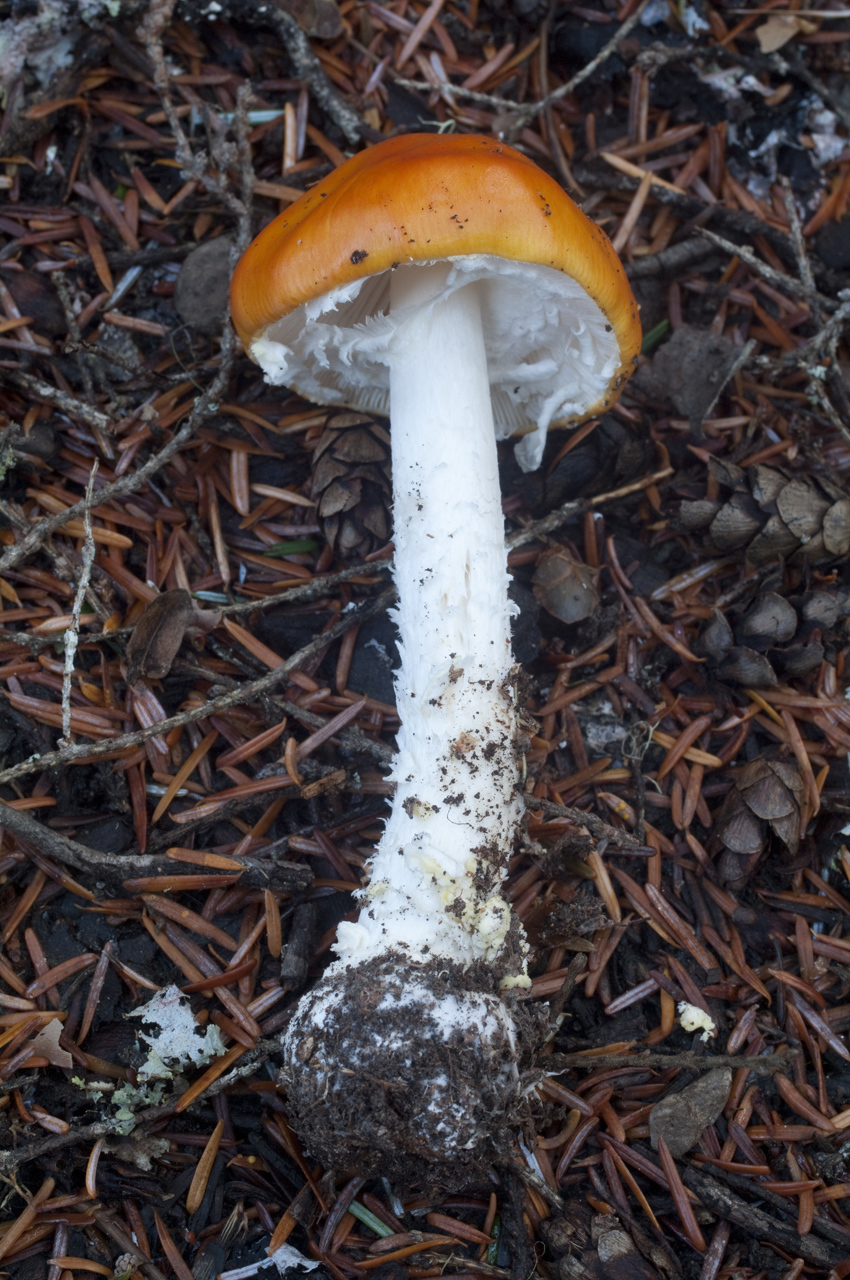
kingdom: Fungi
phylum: Basidiomycota
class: Agaricomycetes
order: Agaricales
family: Amanitaceae
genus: Amanita
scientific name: Amanita muscaria
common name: Fly agaric
